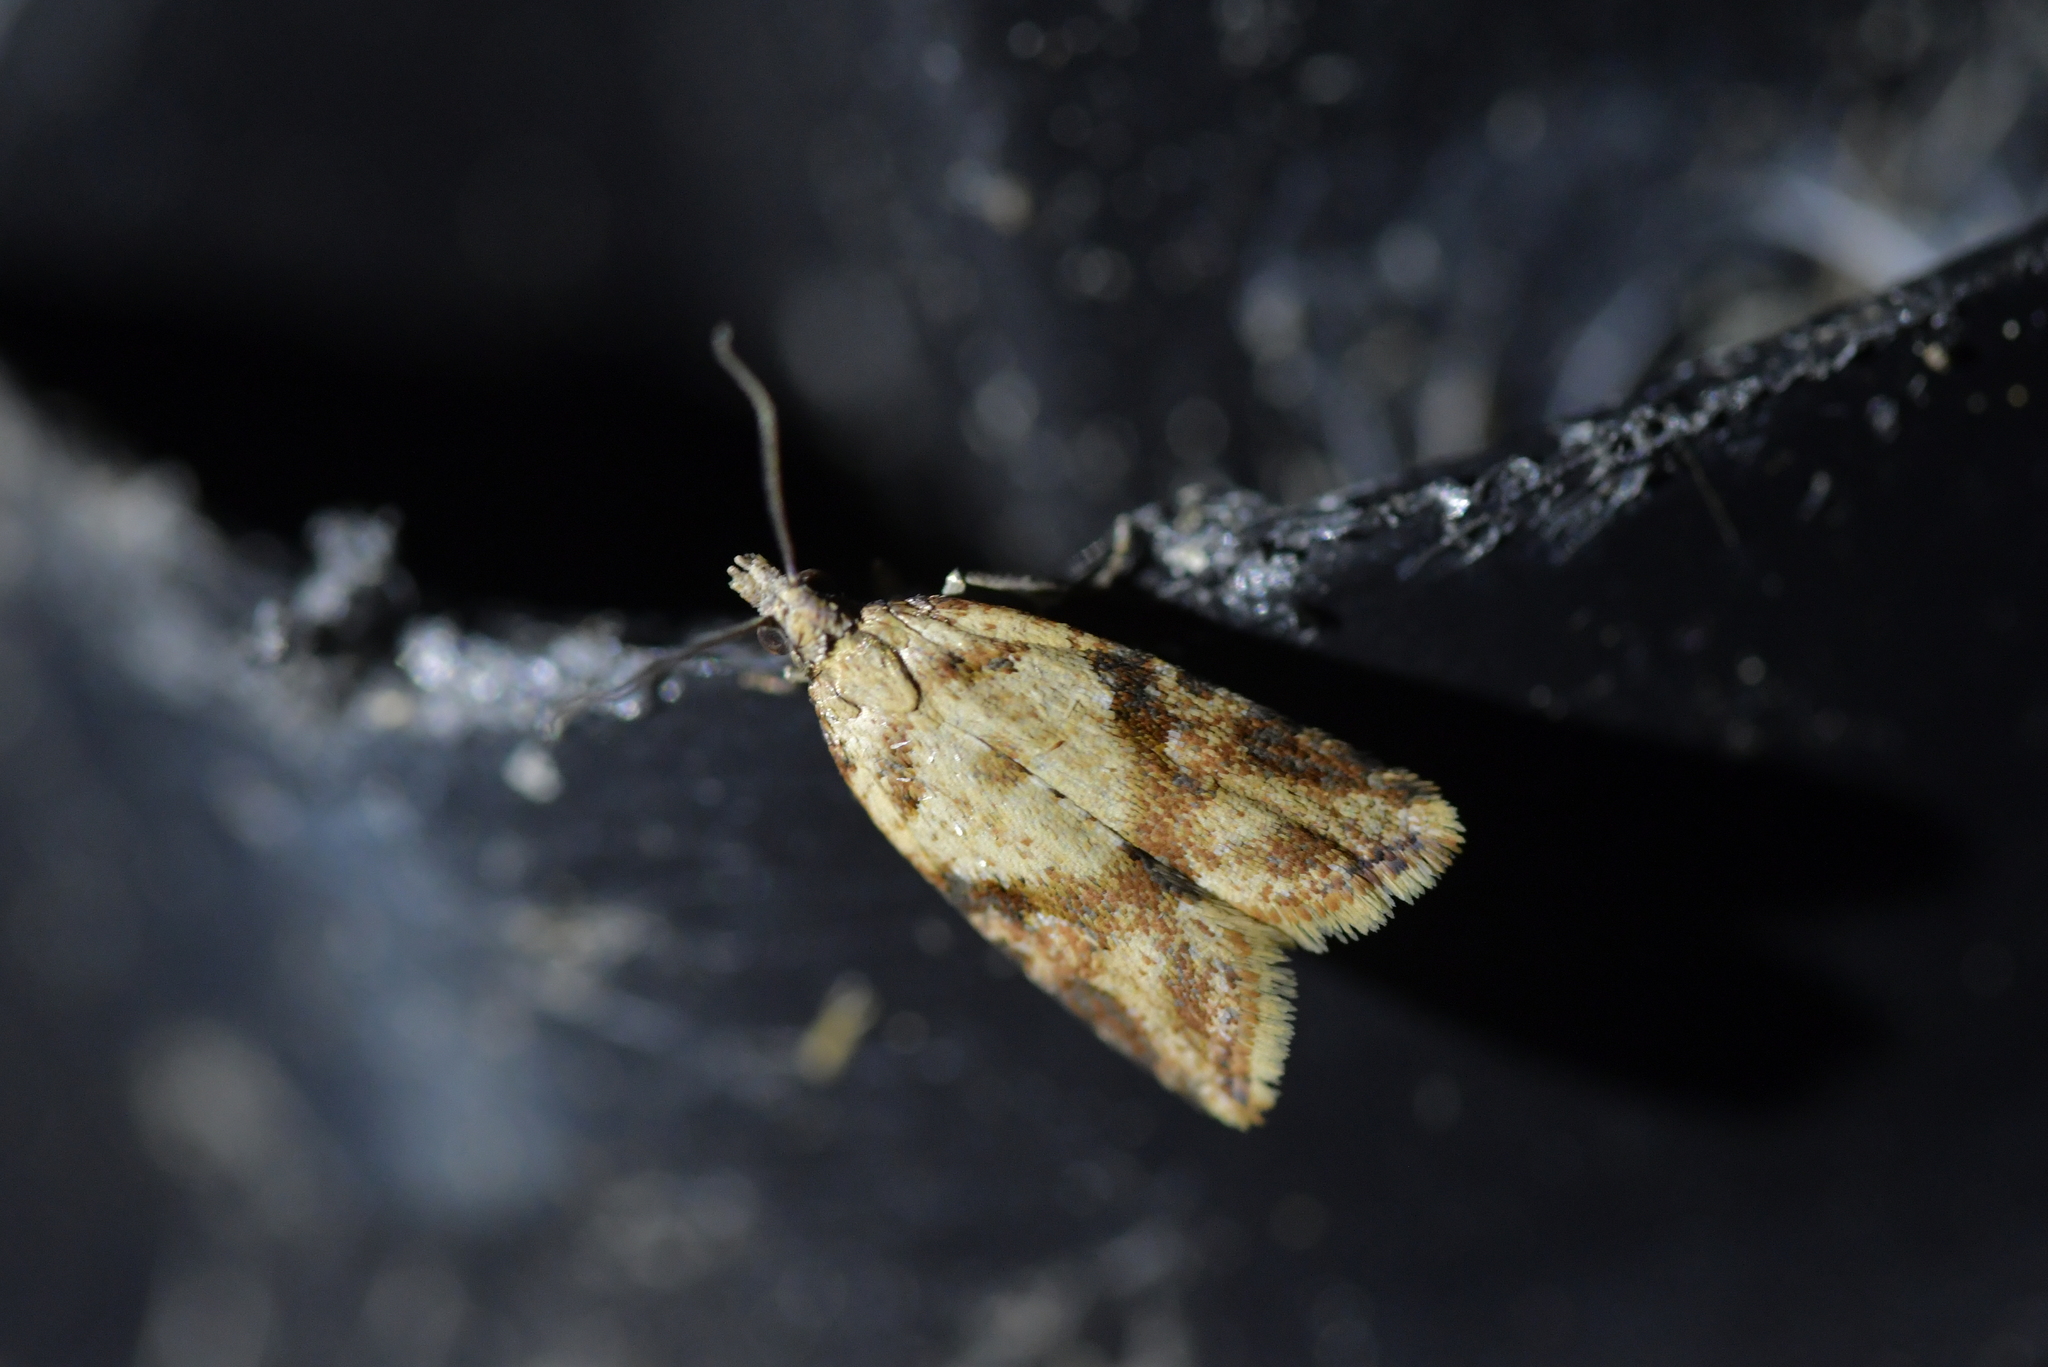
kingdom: Animalia
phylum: Arthropoda
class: Insecta
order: Lepidoptera
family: Tortricidae
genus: Capua
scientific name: Capua semiferana
